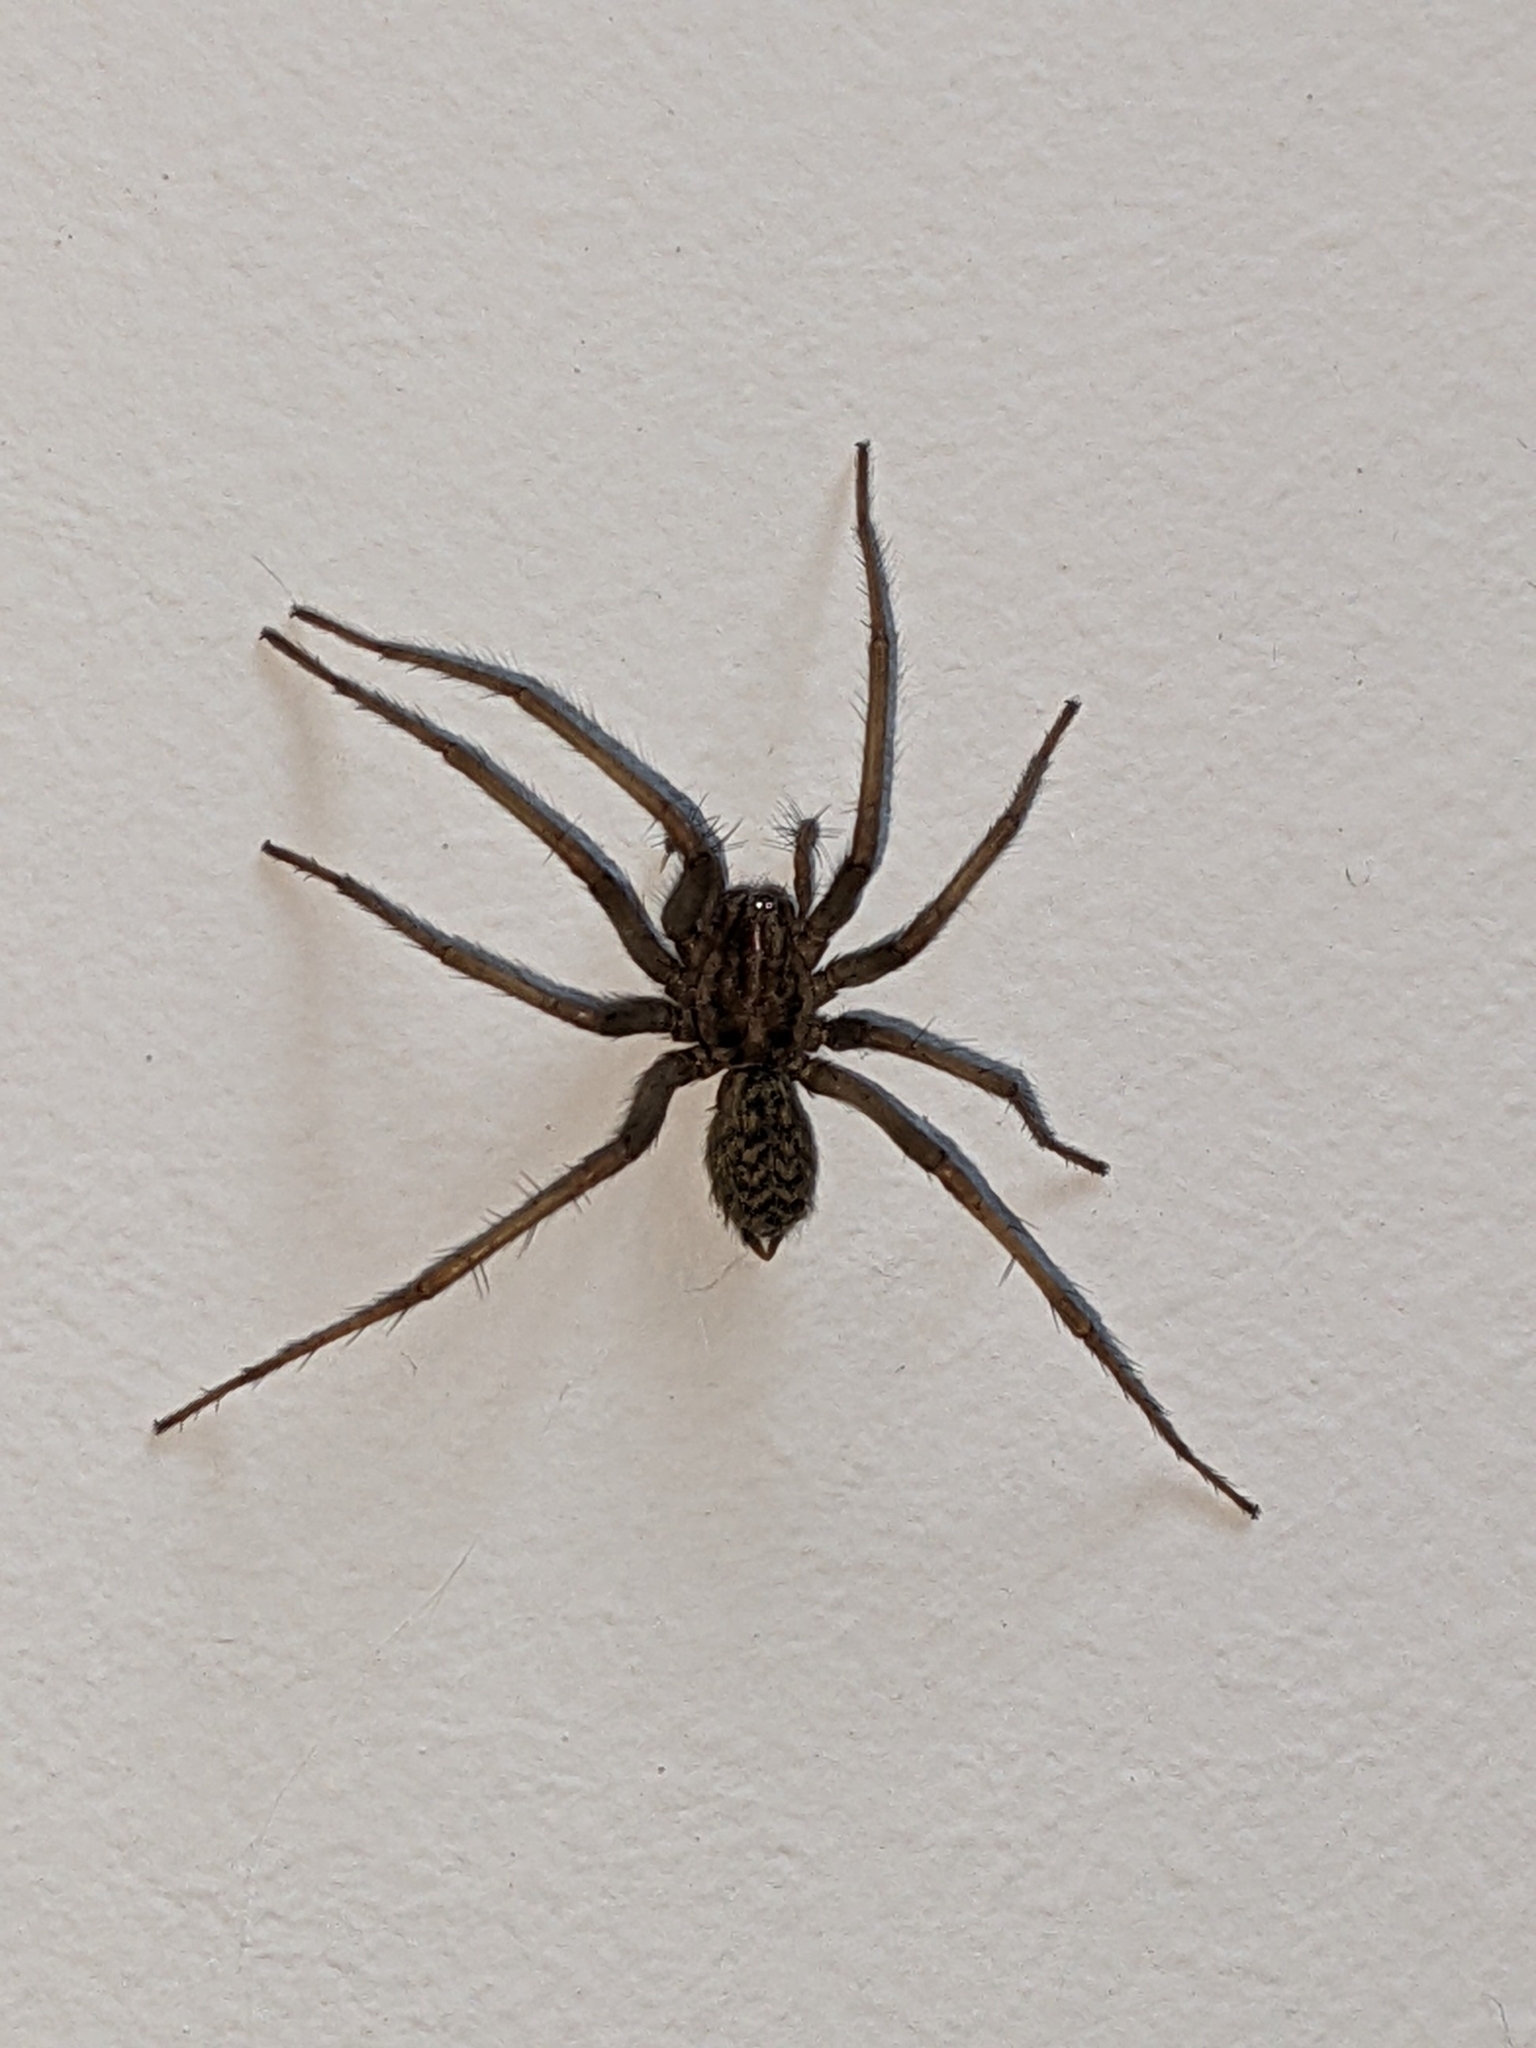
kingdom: Animalia
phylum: Arthropoda
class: Arachnida
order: Araneae
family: Agelenidae
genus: Eratigena
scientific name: Eratigena atrica
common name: Giant house spider
